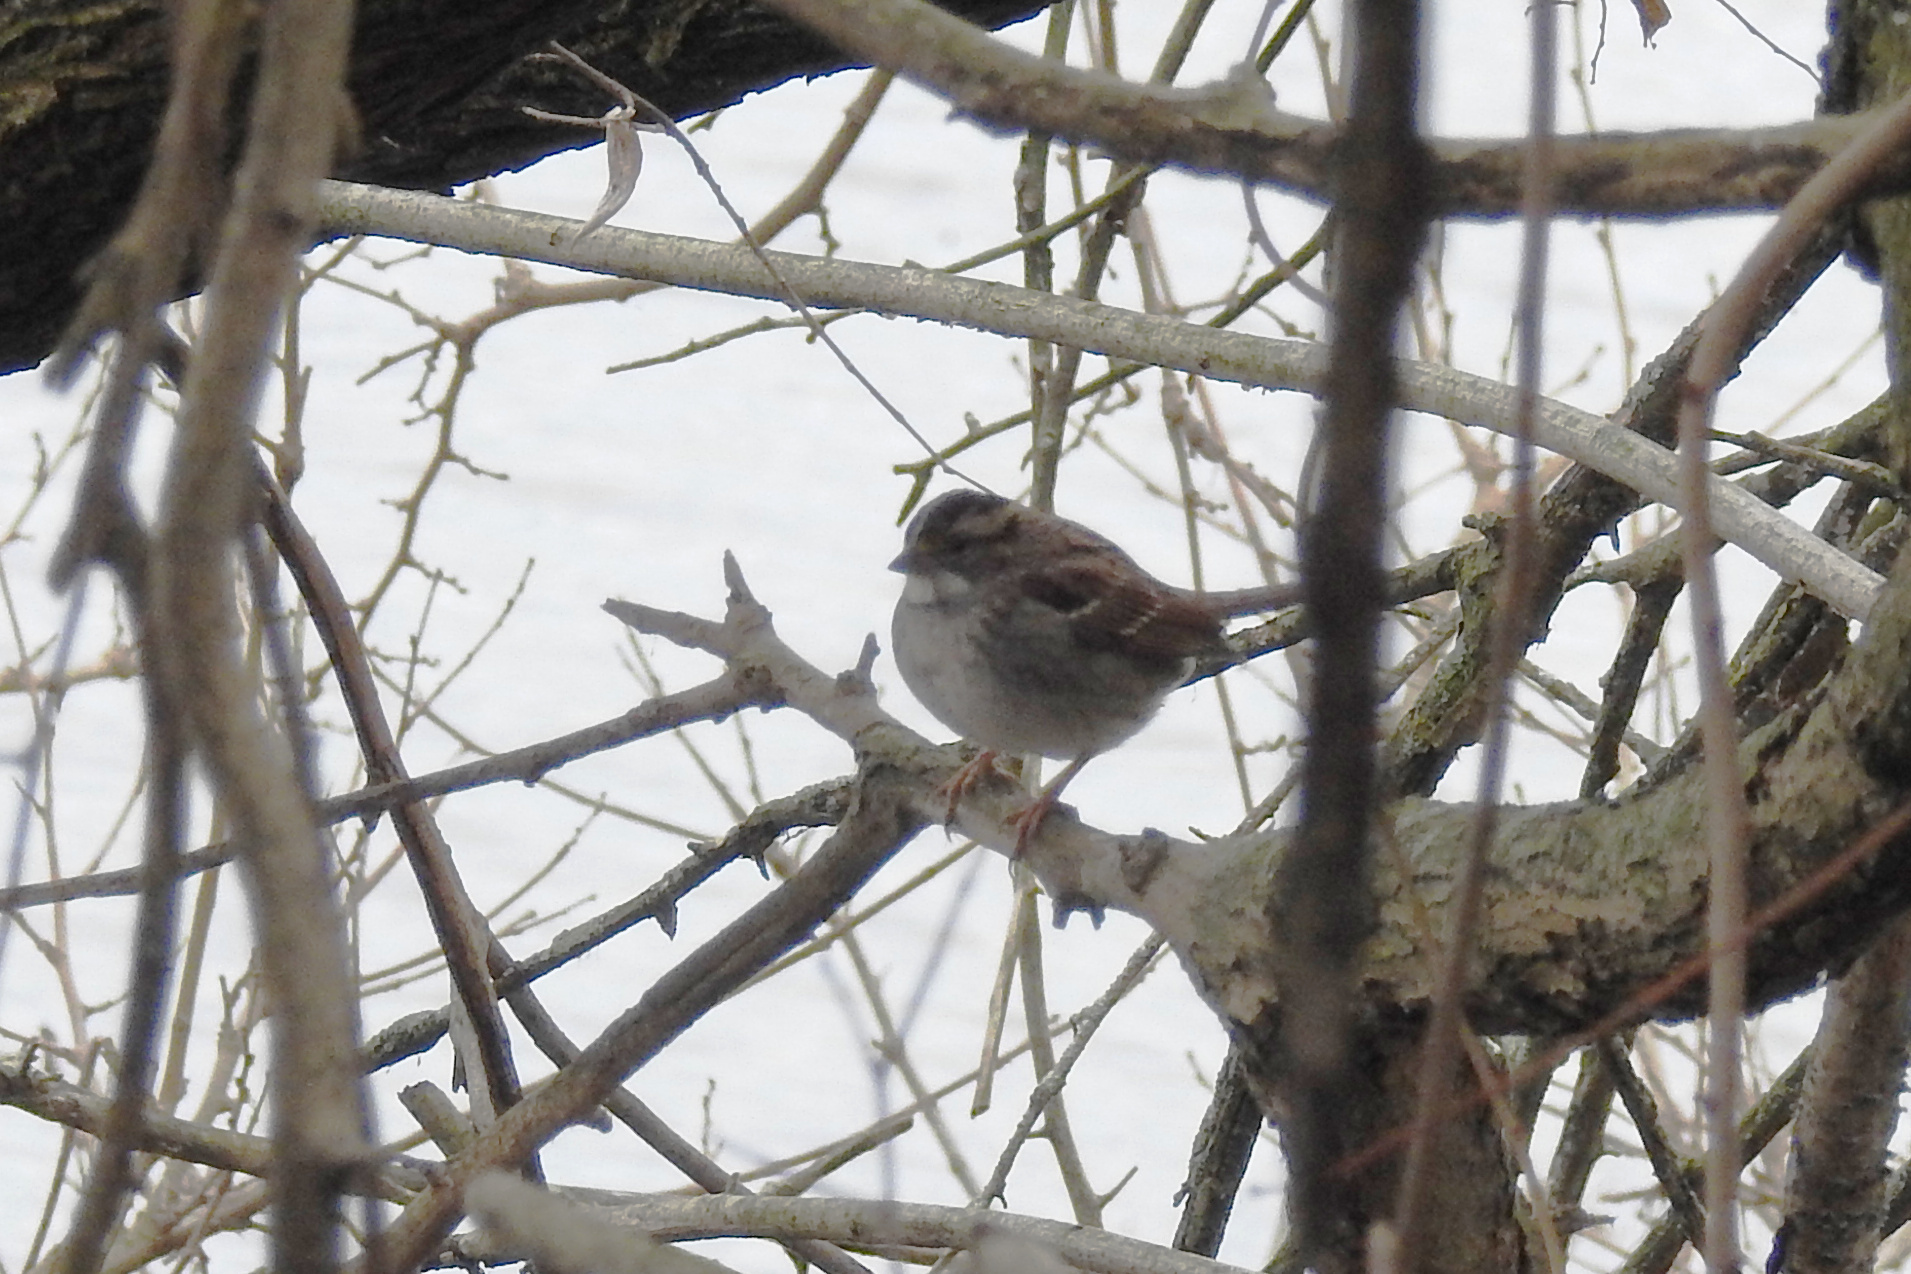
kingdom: Animalia
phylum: Chordata
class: Aves
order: Passeriformes
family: Passerellidae
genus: Zonotrichia
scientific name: Zonotrichia albicollis
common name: White-throated sparrow
